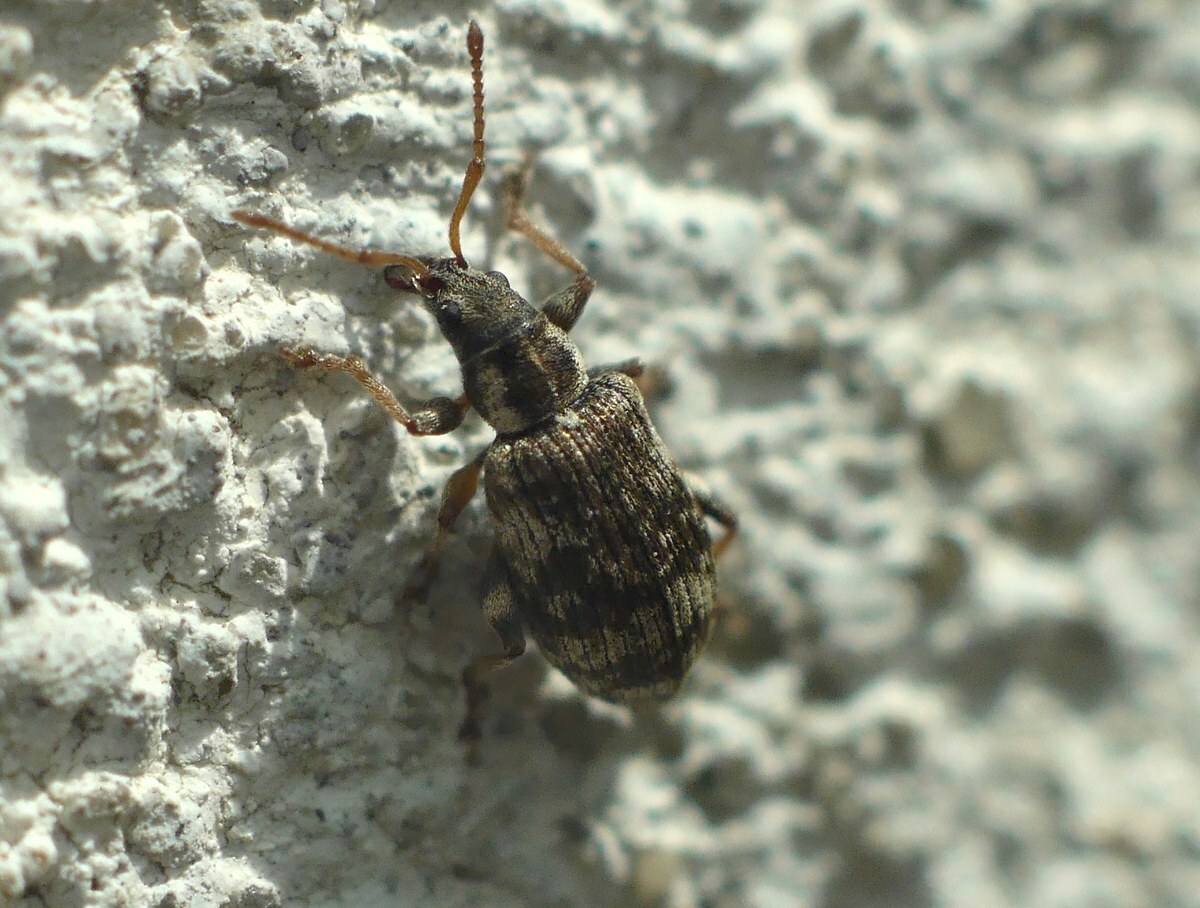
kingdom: Animalia
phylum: Arthropoda
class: Insecta
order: Coleoptera
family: Curculionidae
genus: Oedecnemidius
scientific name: Oedecnemidius varius
